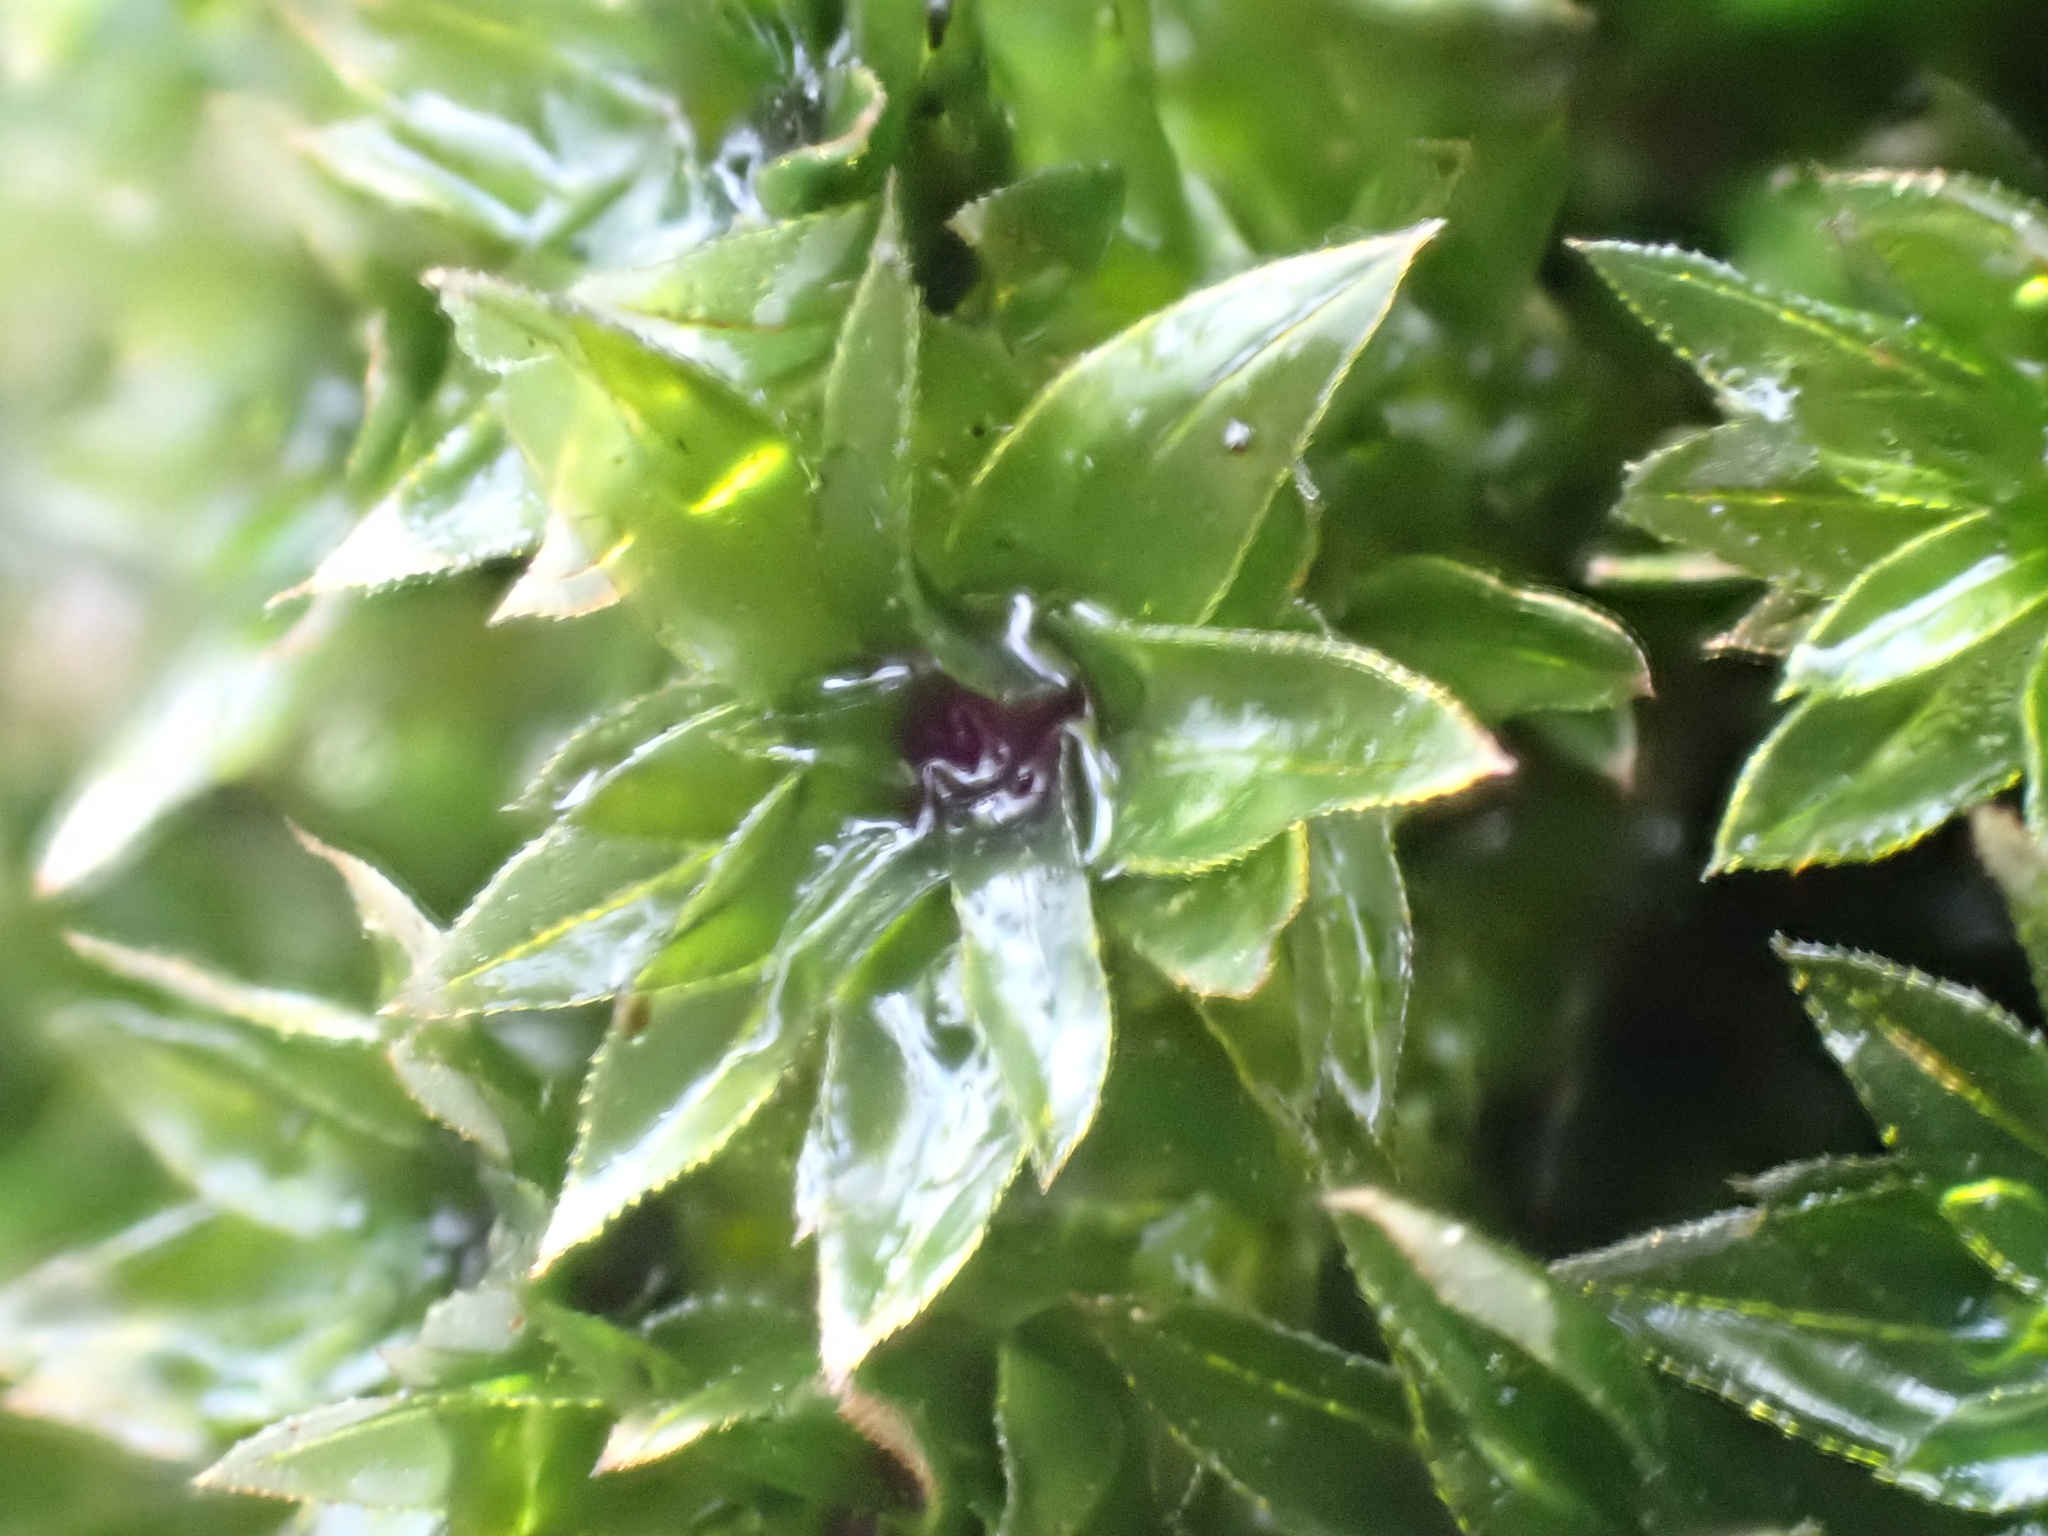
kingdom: Plantae
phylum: Bryophyta
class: Bryopsida
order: Bryales
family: Mniaceae
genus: Mnium
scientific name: Mnium hornum
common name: Swan's-neck leafy moss
